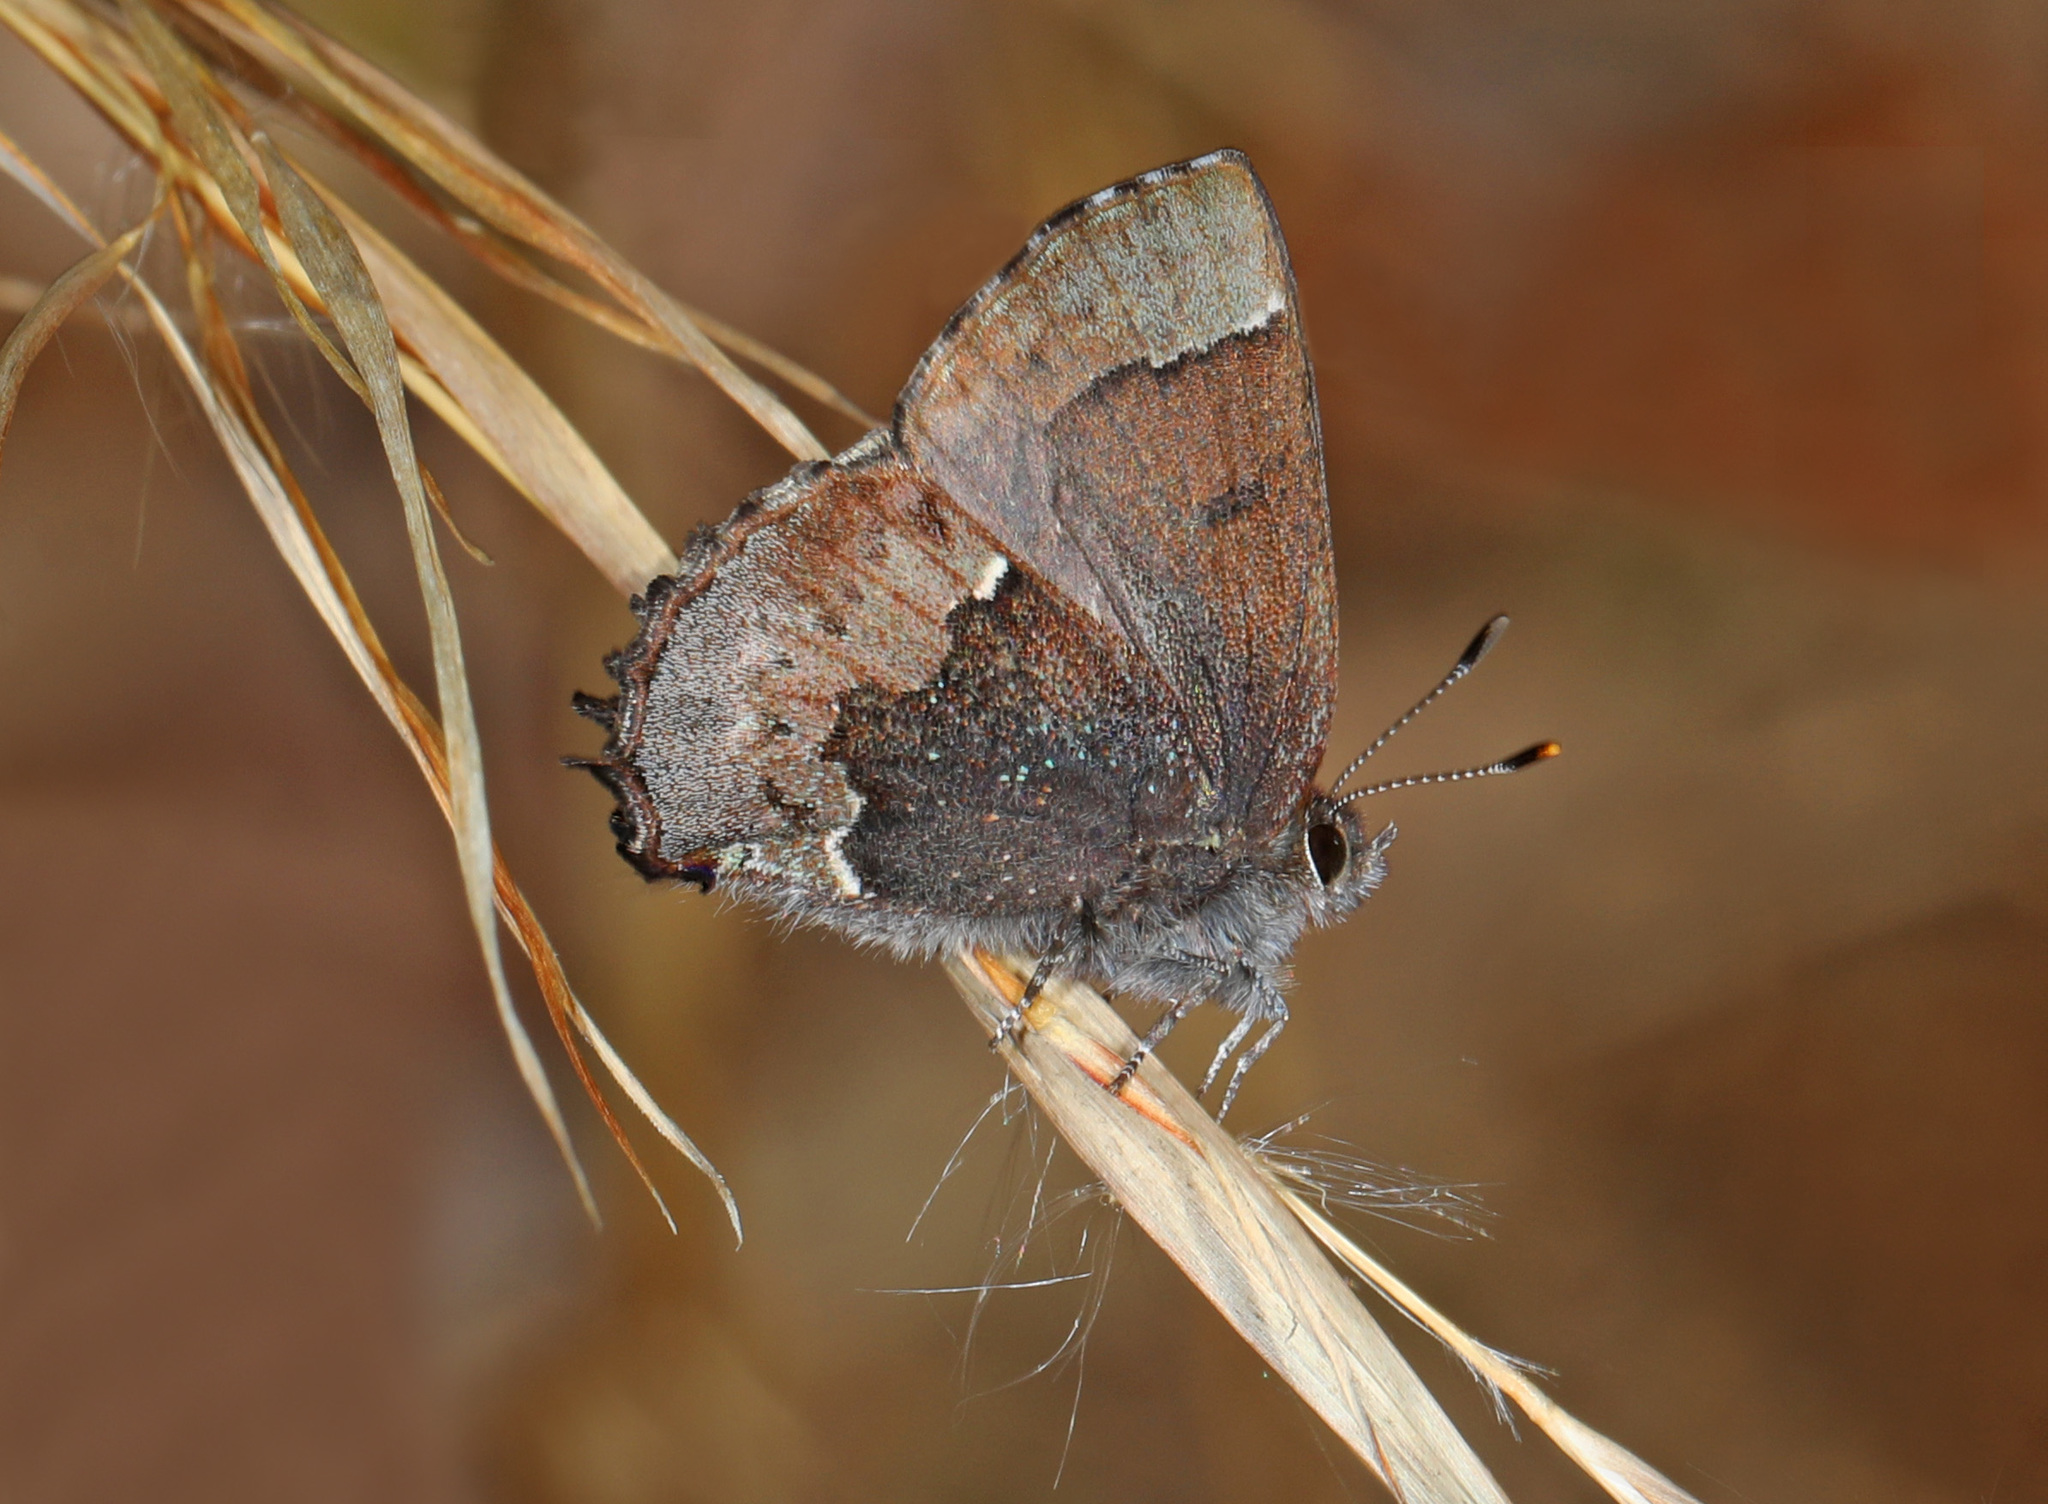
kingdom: Animalia
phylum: Arthropoda
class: Insecta
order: Lepidoptera
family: Lycaenidae
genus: Incisalia
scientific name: Incisalia henrici
